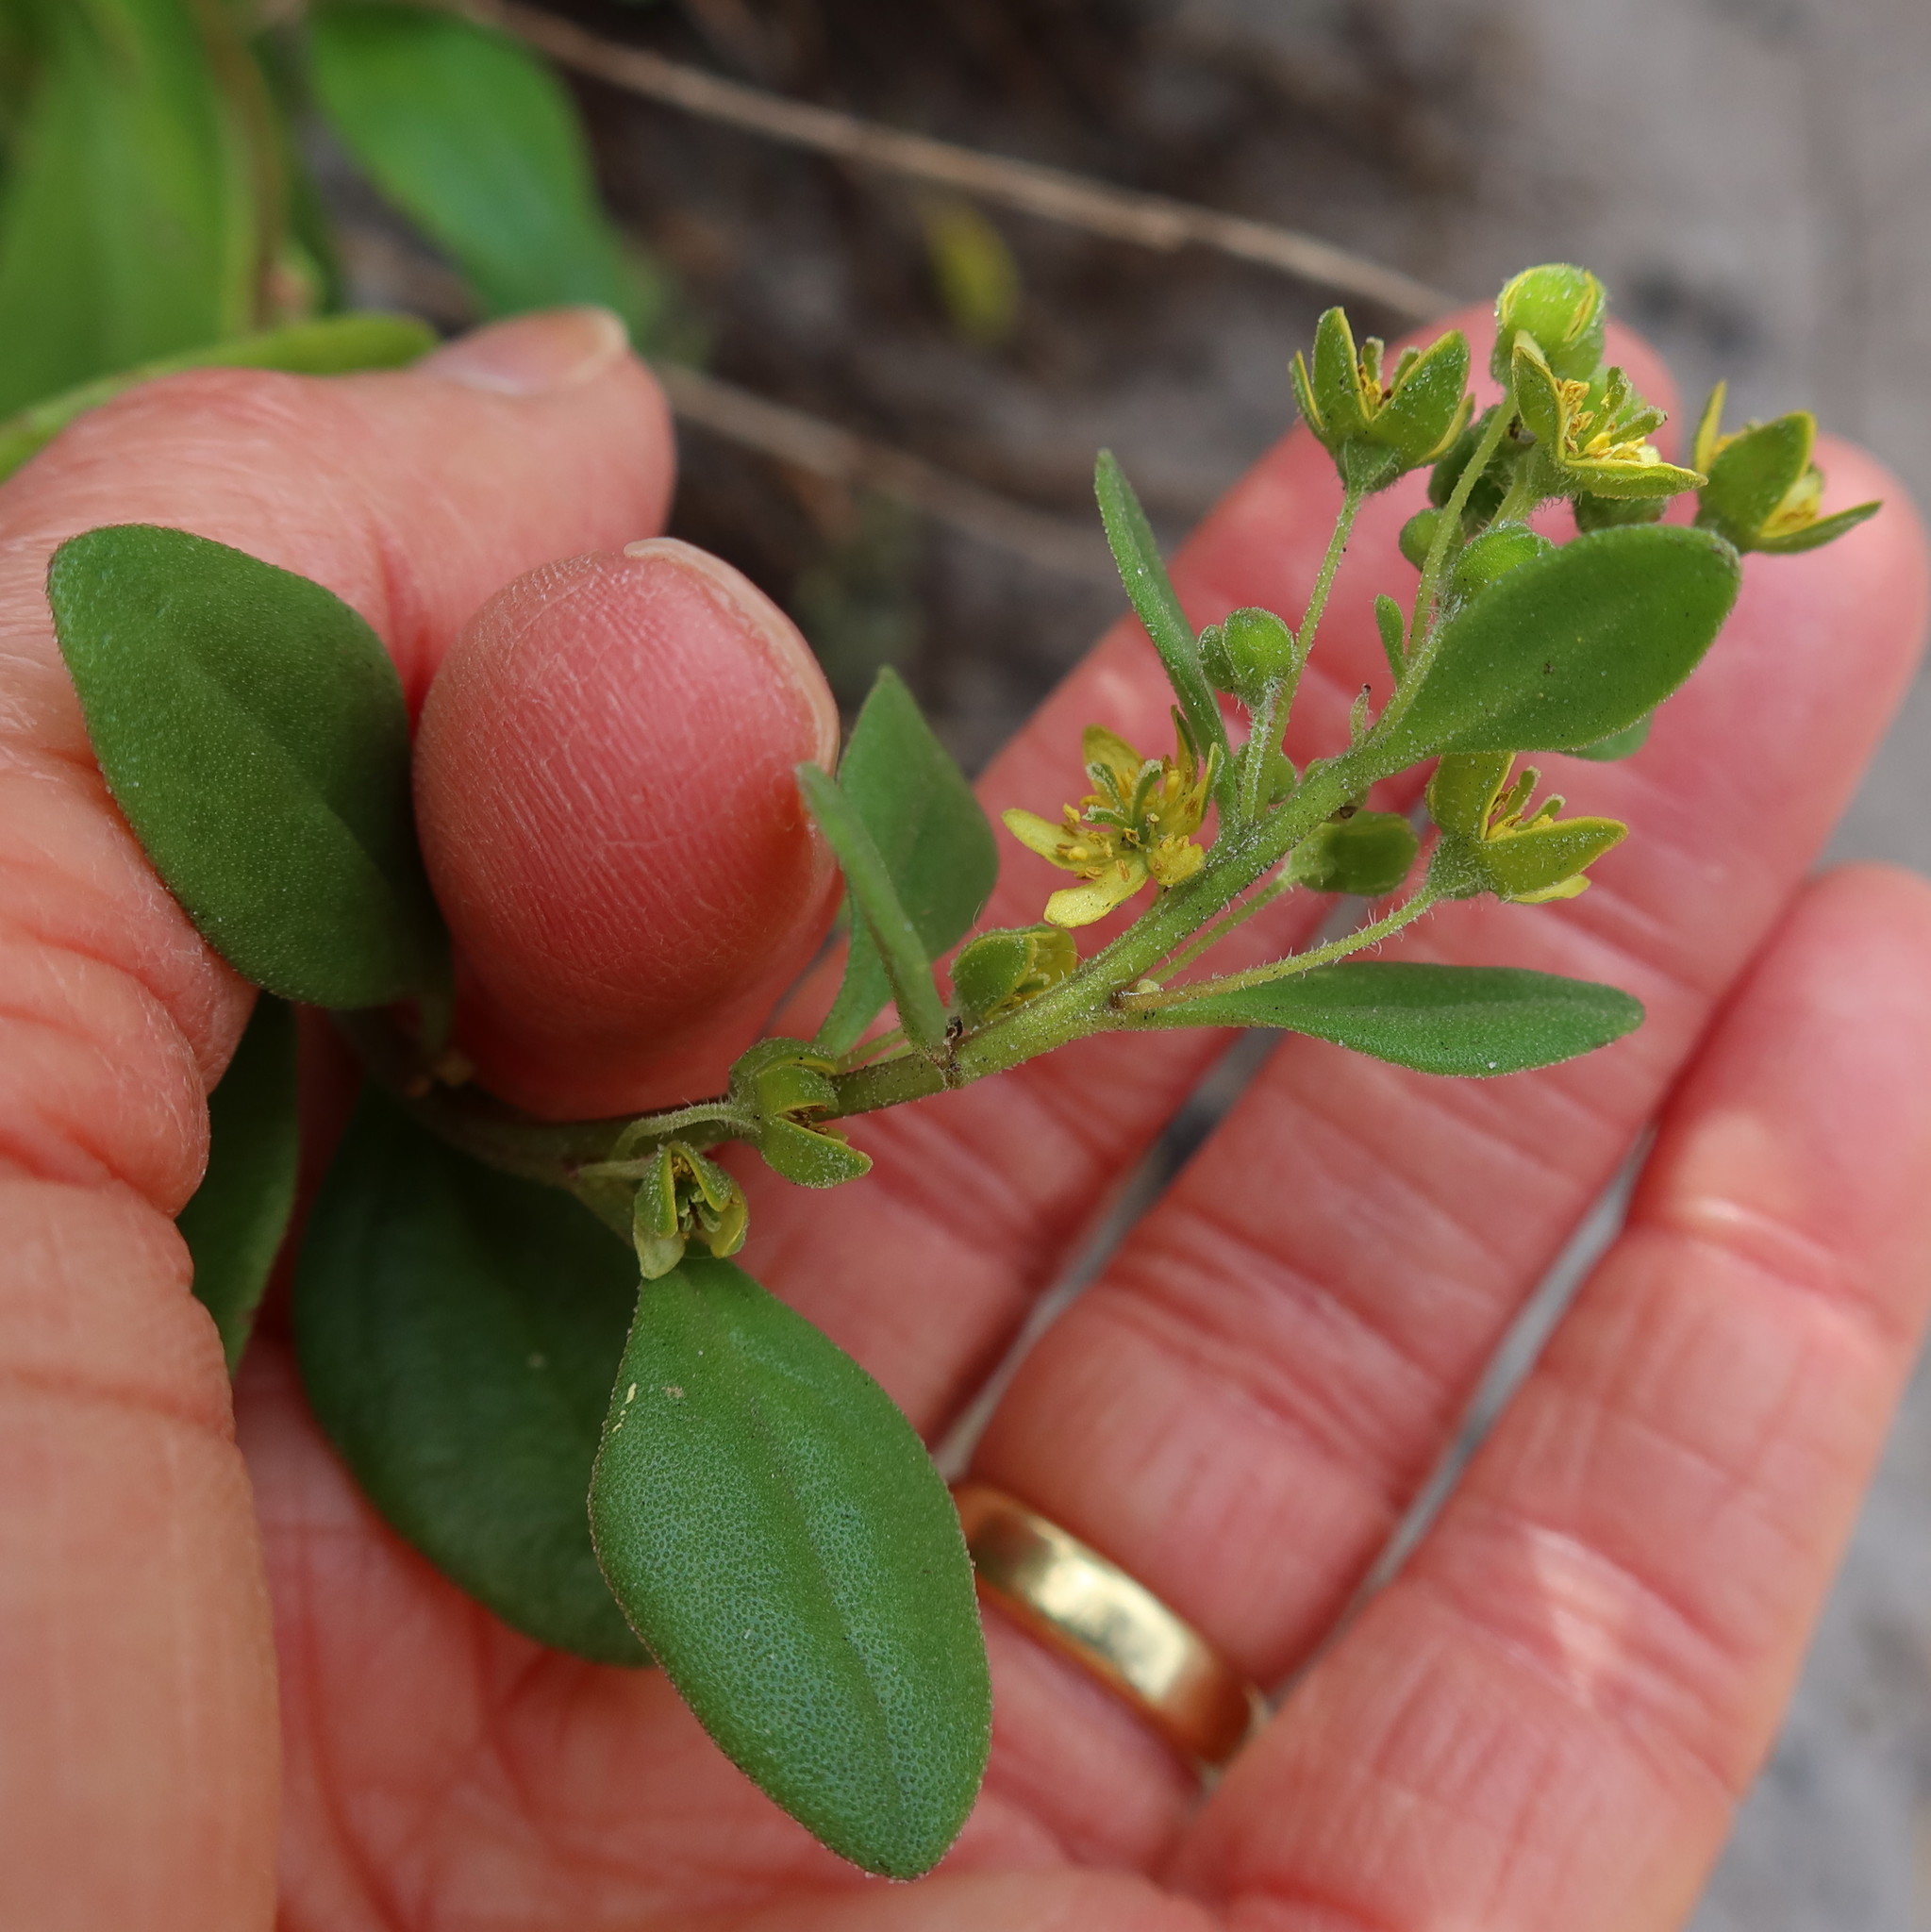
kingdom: Plantae
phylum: Tracheophyta
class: Magnoliopsida
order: Caryophyllales
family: Aizoaceae
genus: Tetragonia
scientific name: Tetragonia herbacea
